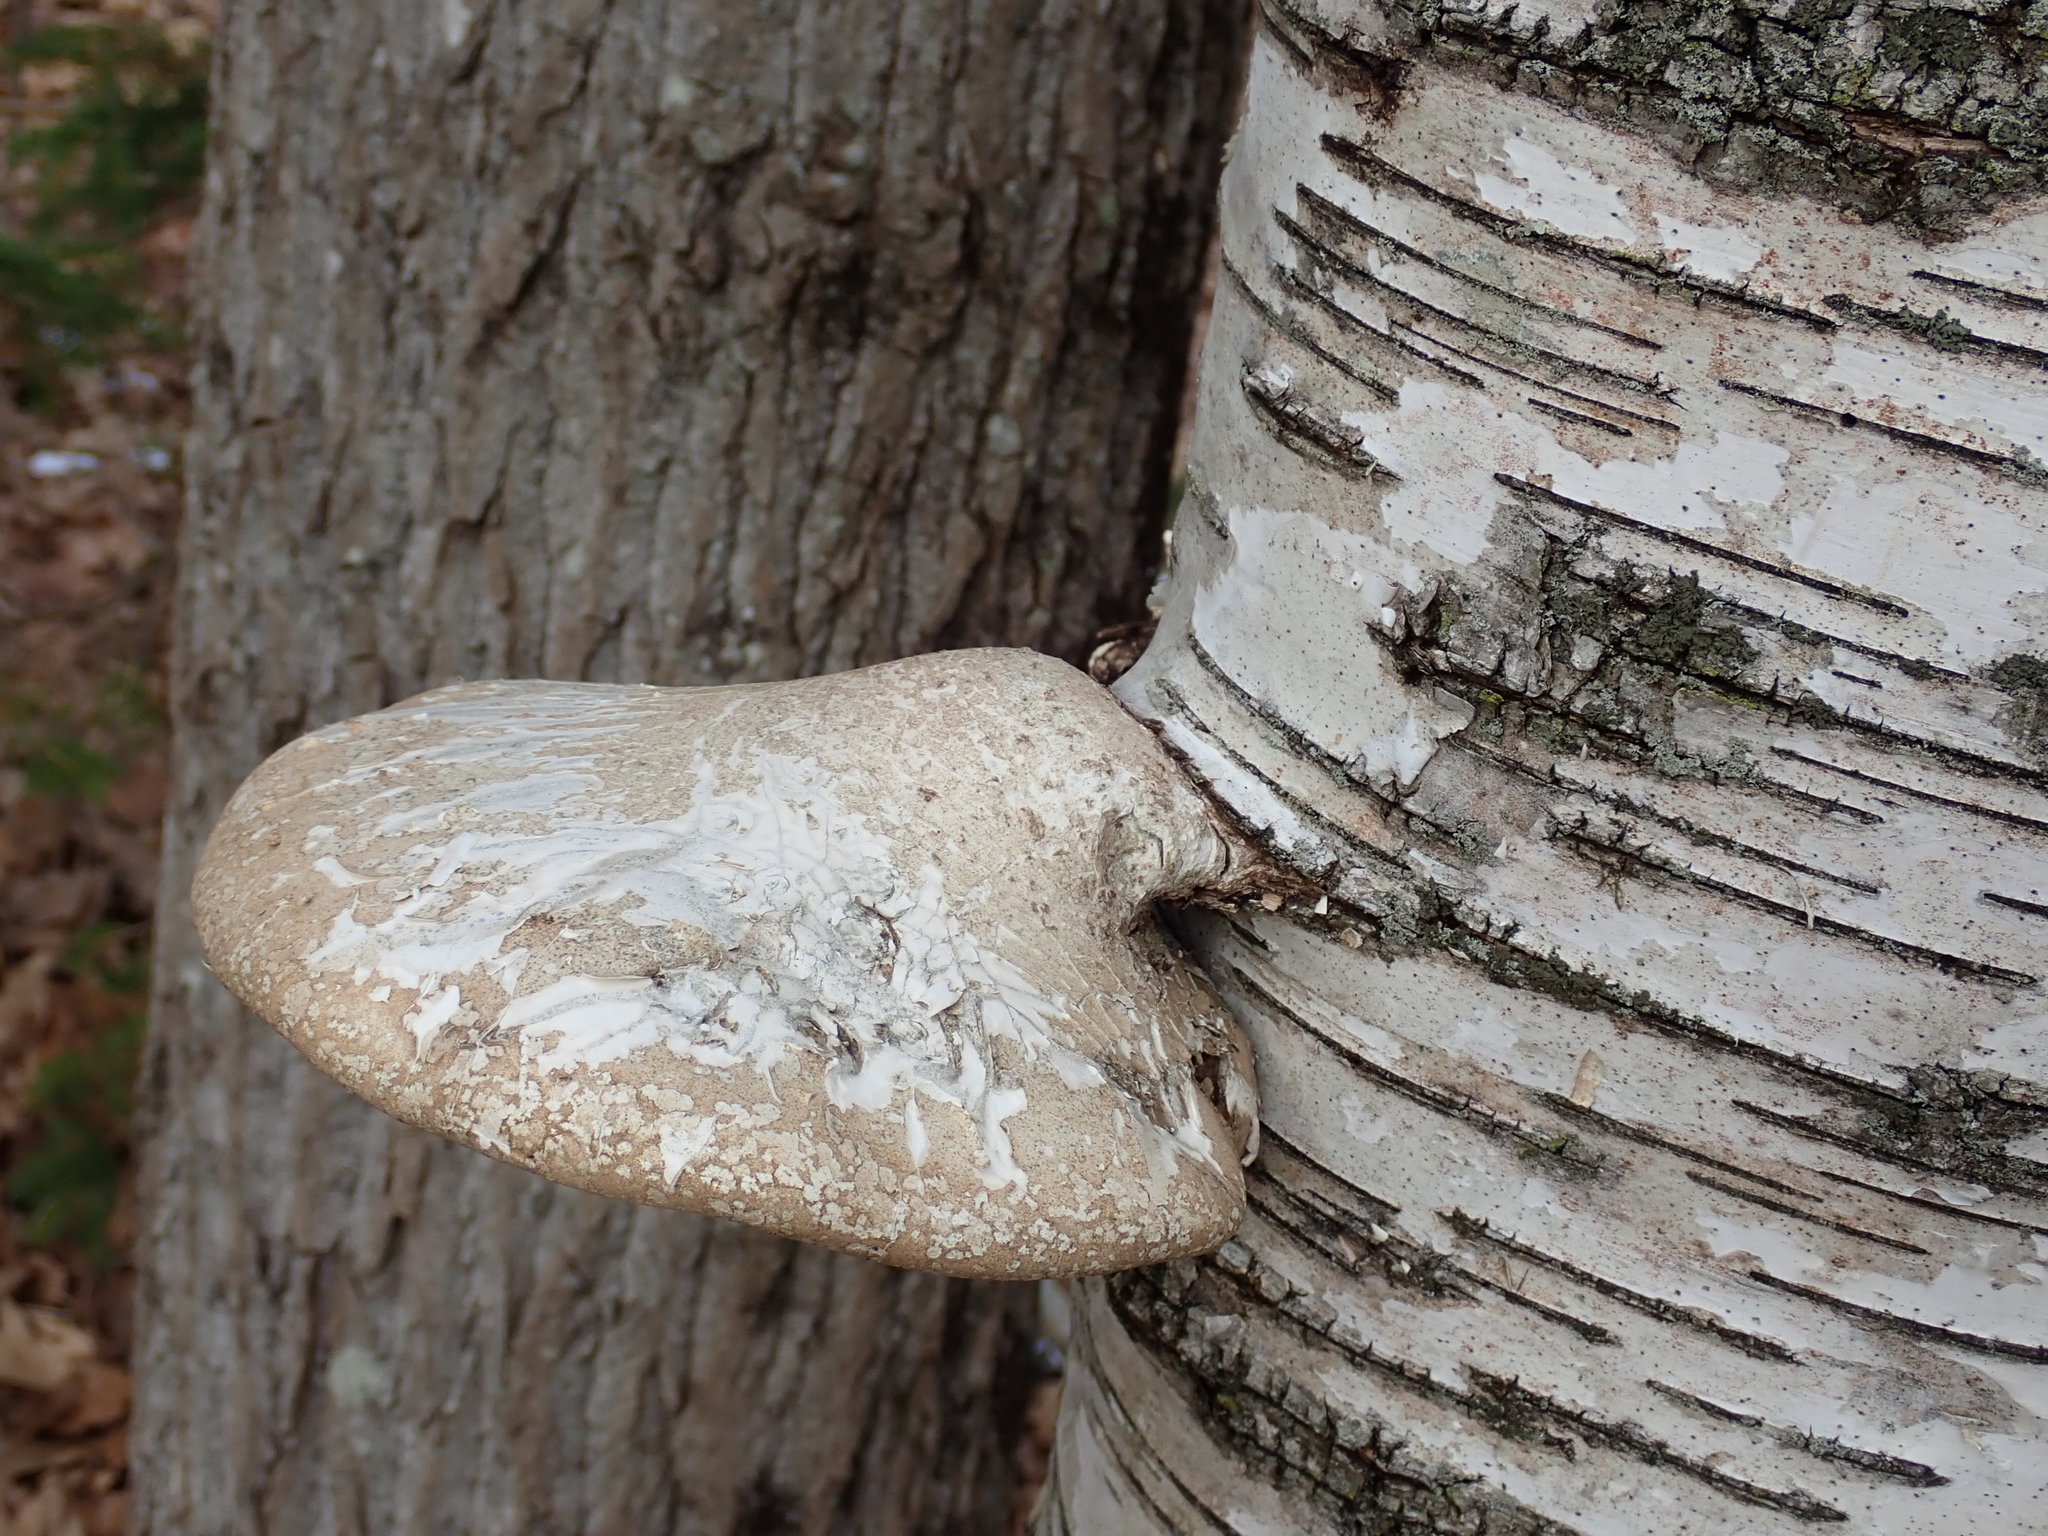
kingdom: Fungi
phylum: Basidiomycota
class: Agaricomycetes
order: Polyporales
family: Fomitopsidaceae
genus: Fomitopsis
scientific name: Fomitopsis betulina
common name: Birch polypore
